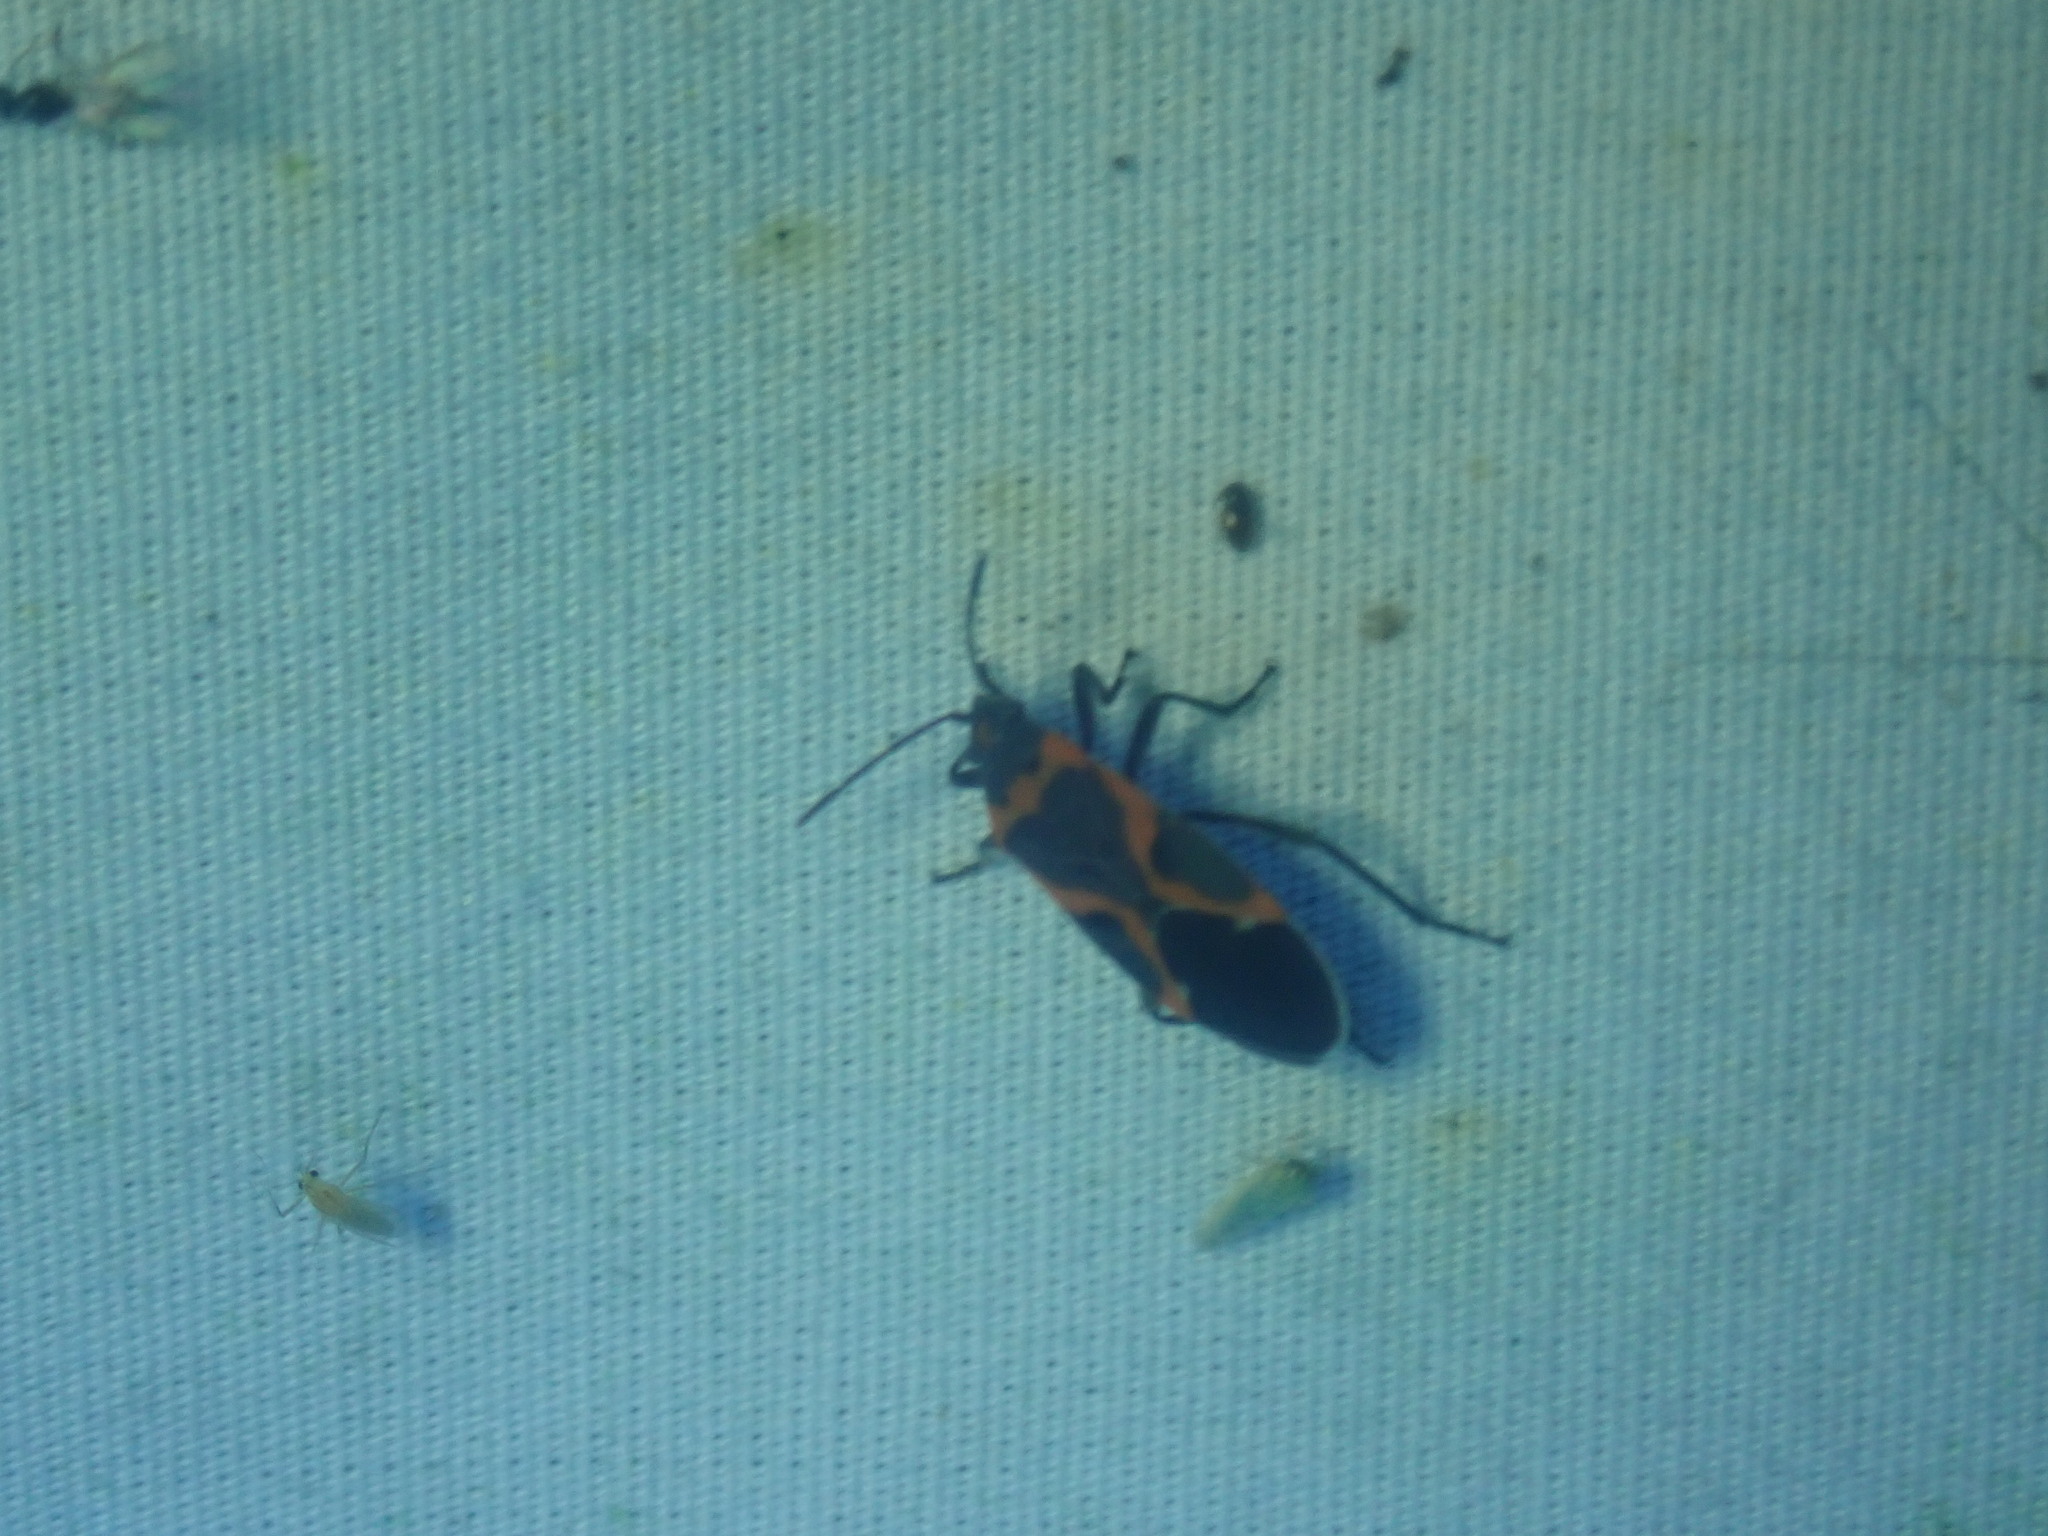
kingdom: Animalia
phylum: Arthropoda
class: Insecta
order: Hemiptera
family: Lygaeidae
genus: Lygaeus
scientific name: Lygaeus kalmii
